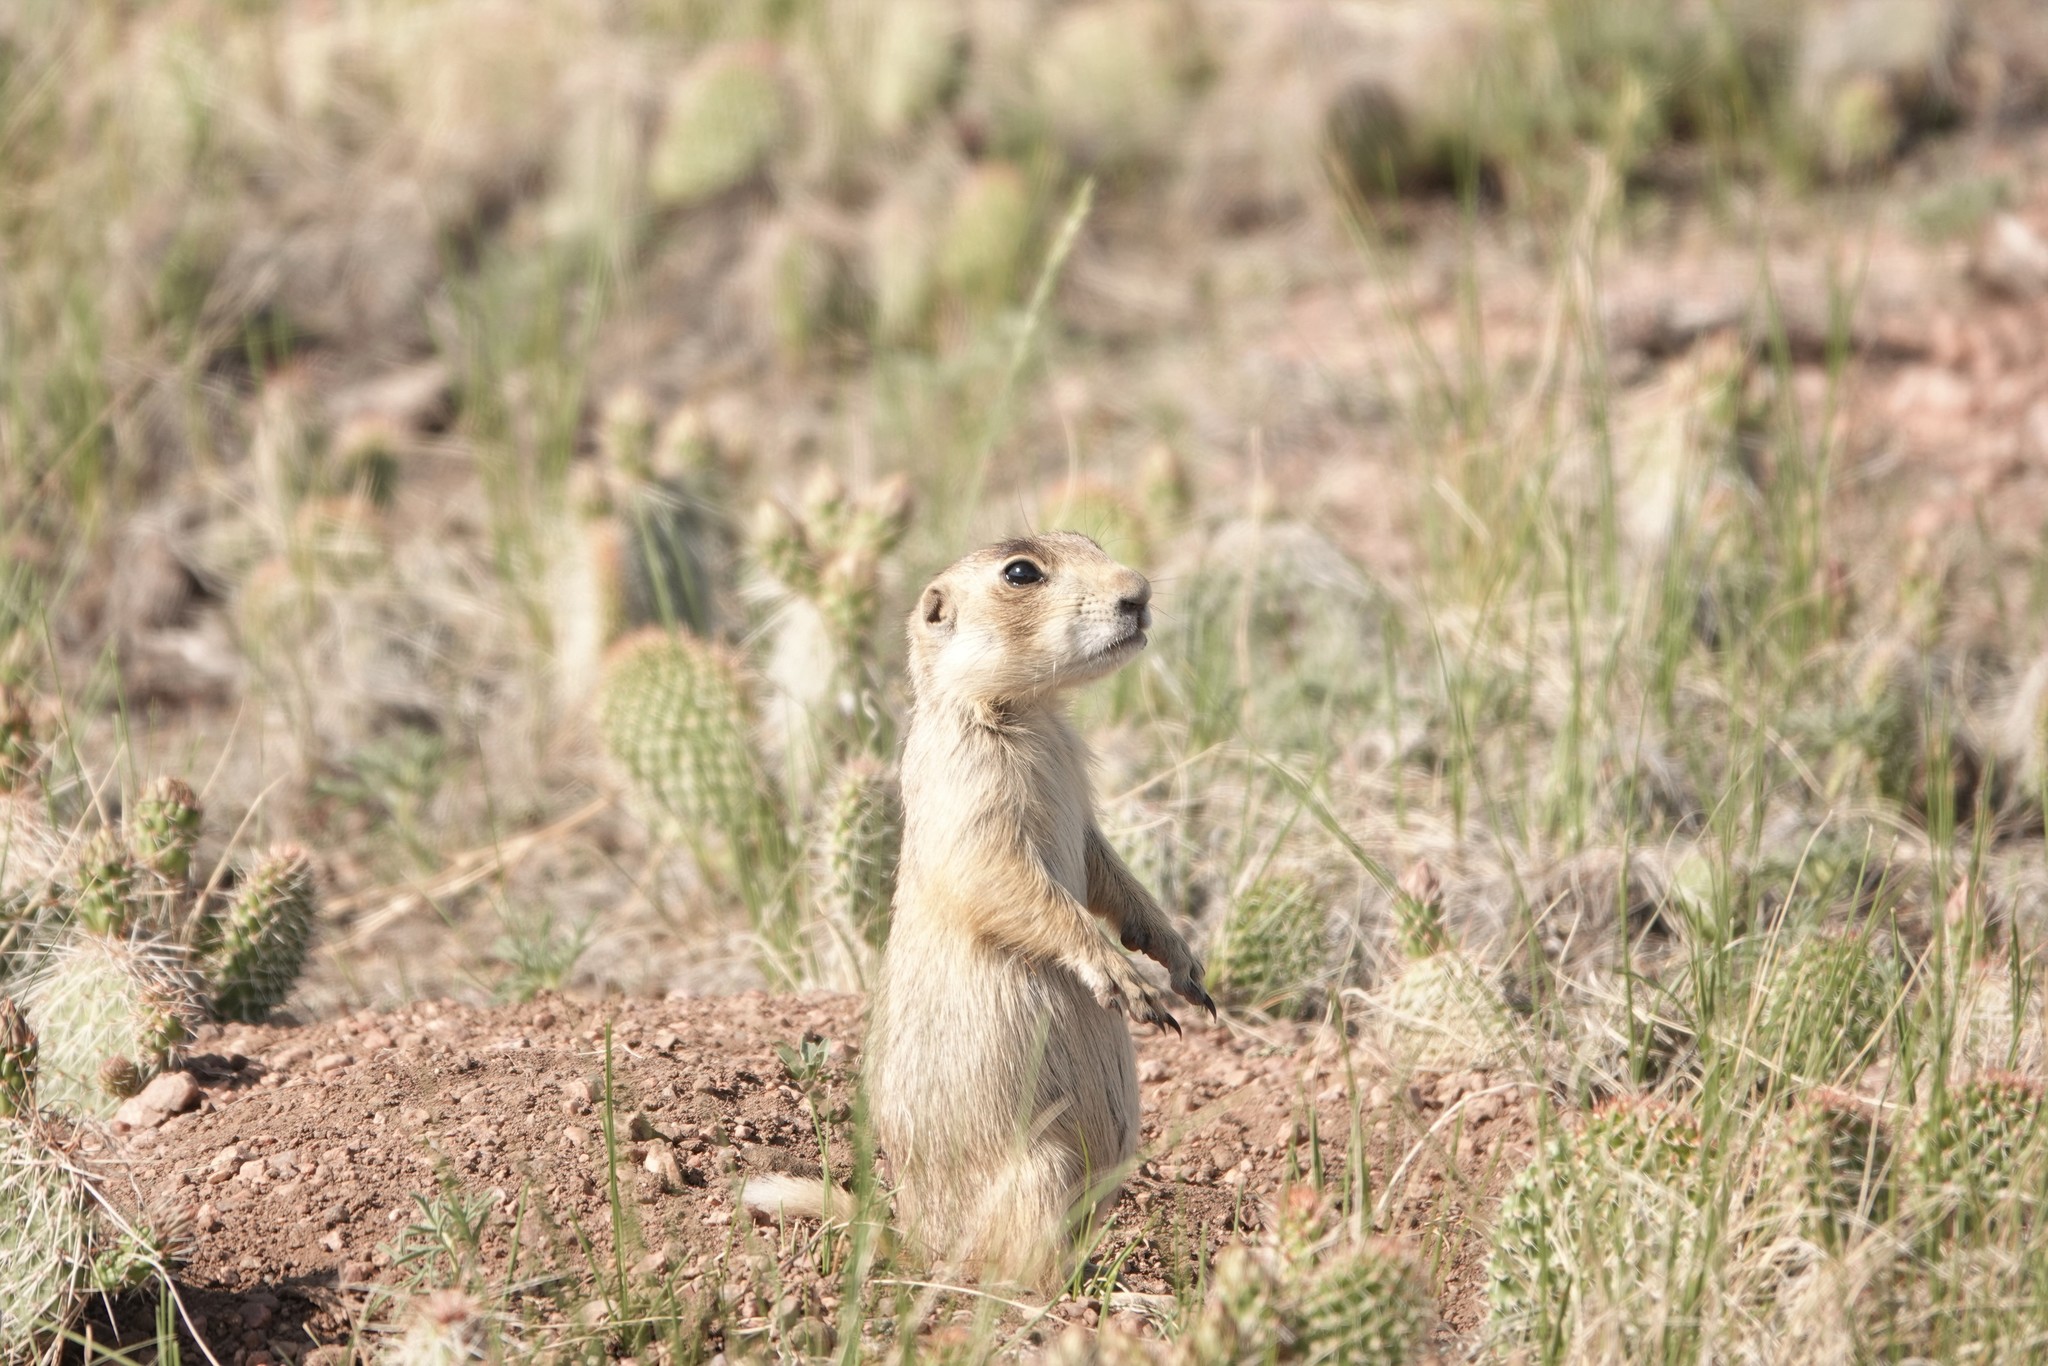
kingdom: Animalia
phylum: Chordata
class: Mammalia
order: Rodentia
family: Sciuridae
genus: Cynomys
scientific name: Cynomys leucurus
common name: White-tailed prairie dog
